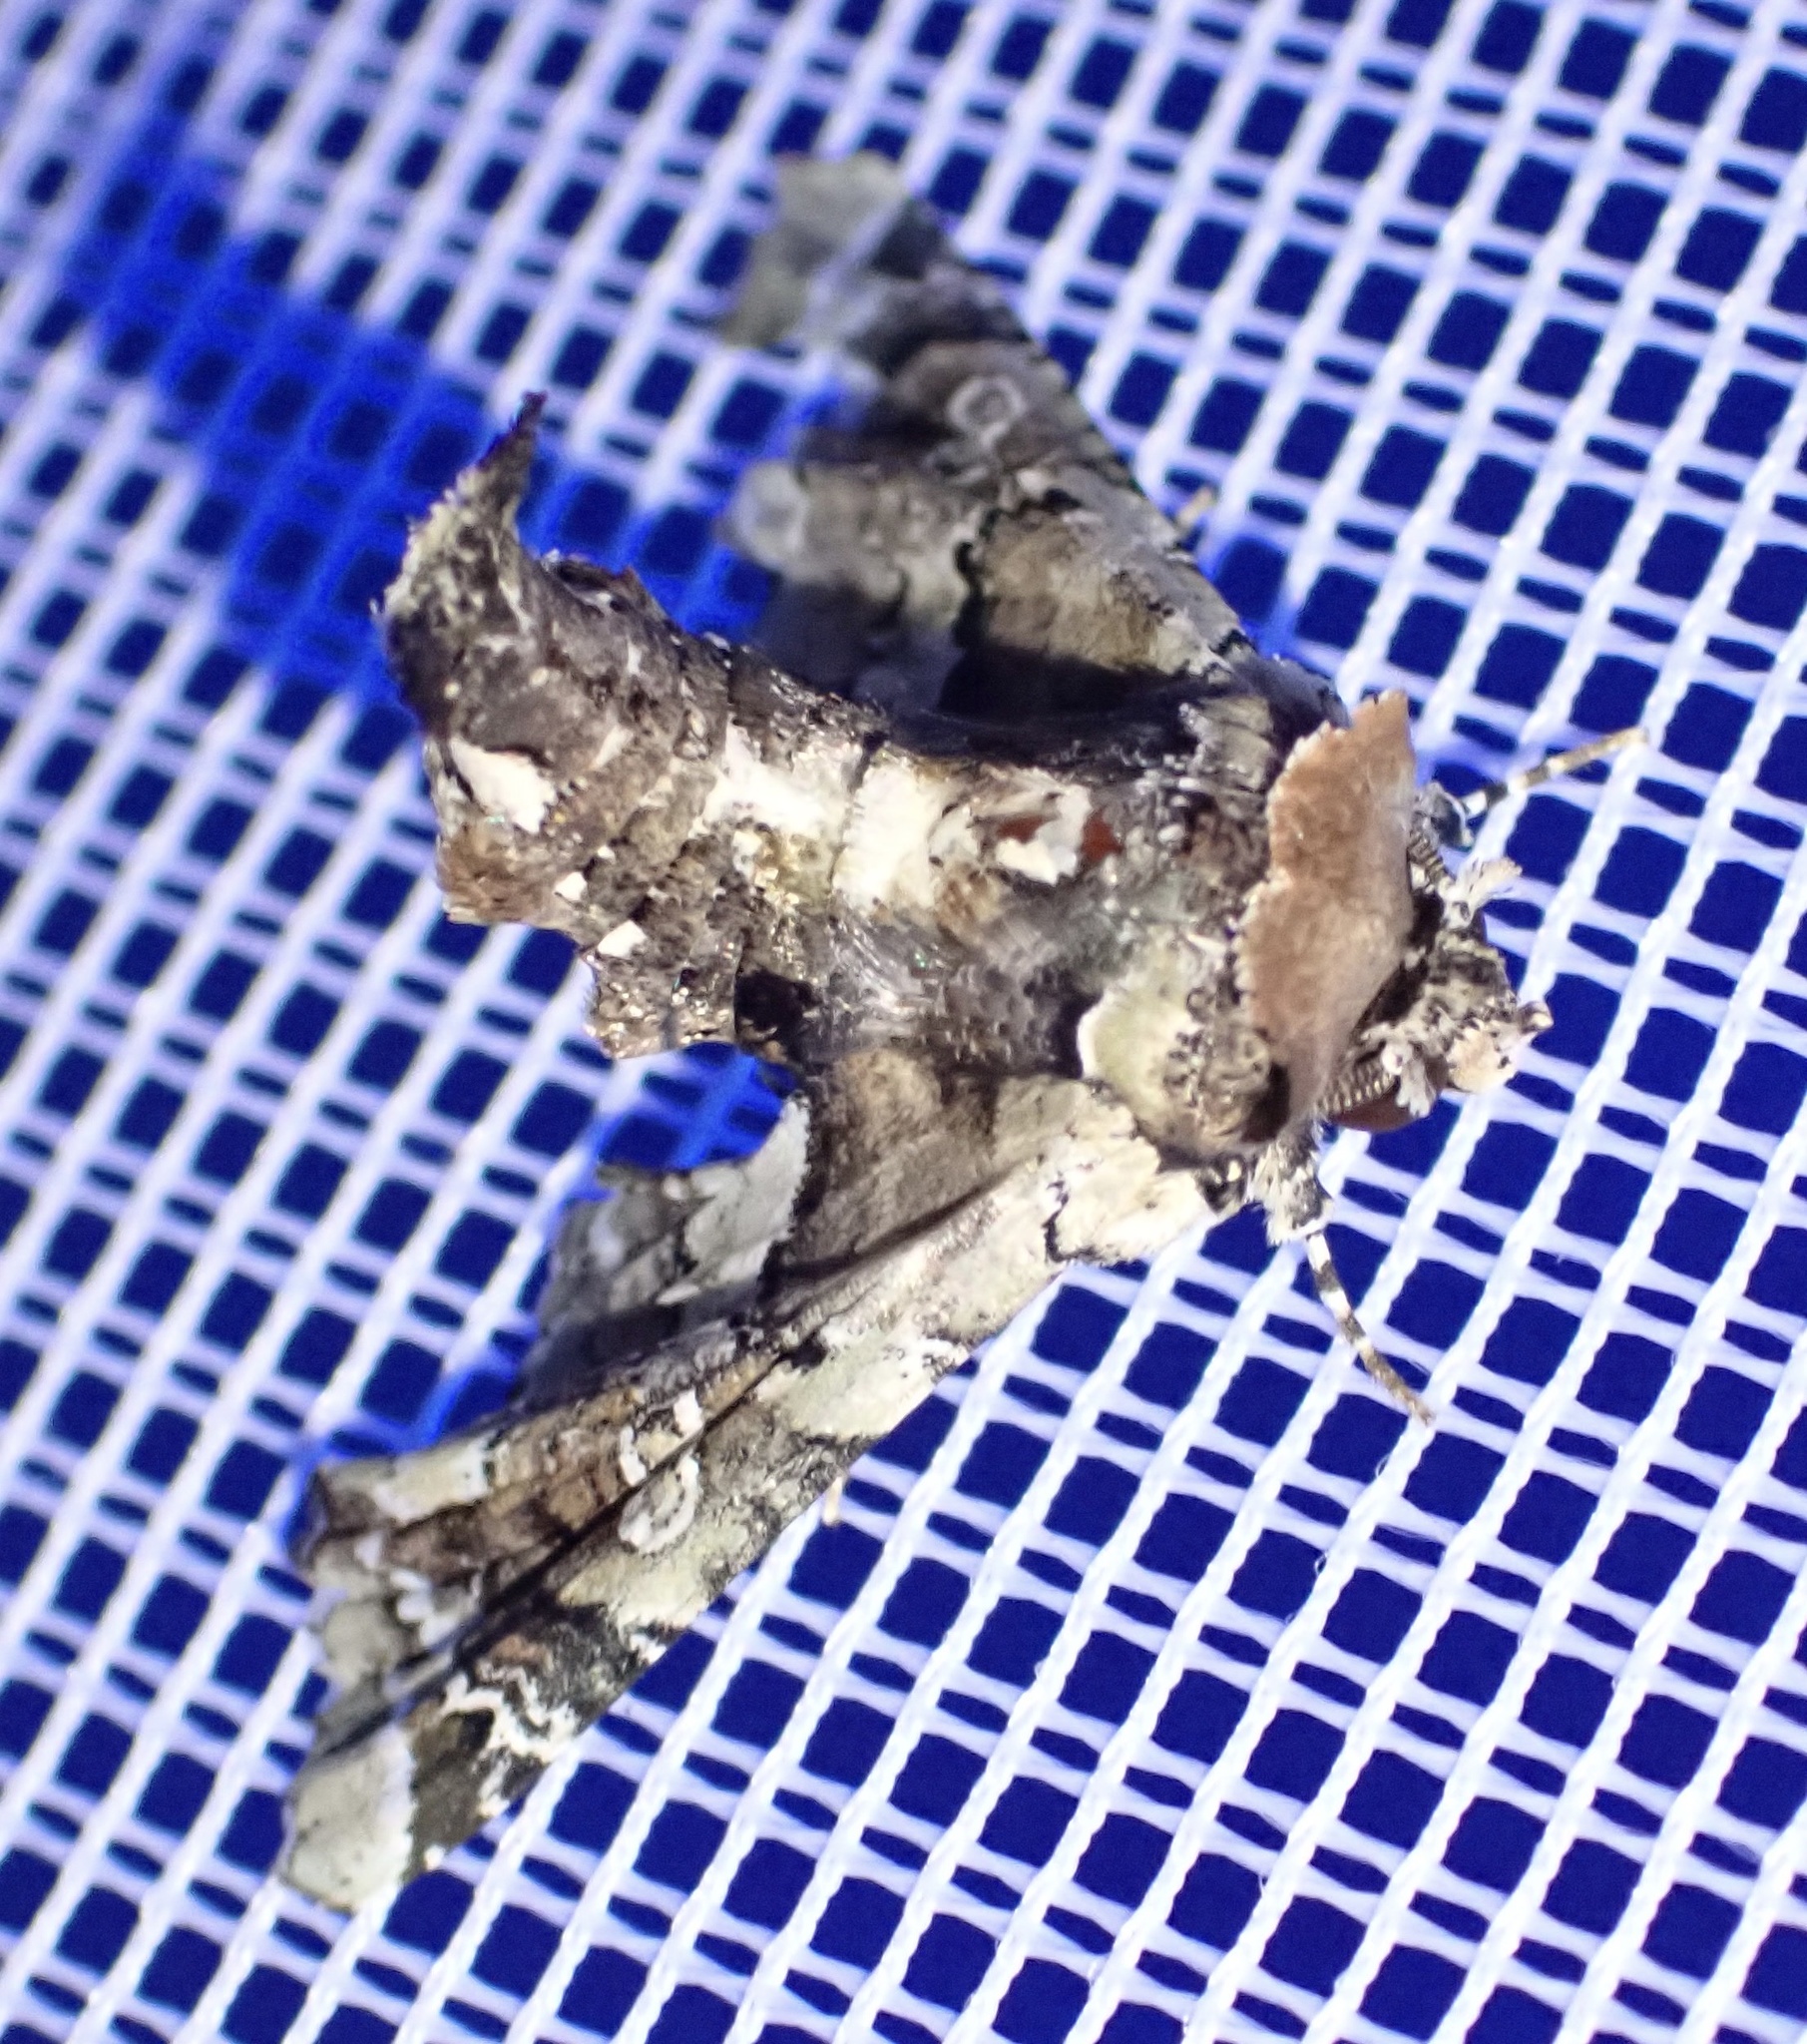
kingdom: Animalia
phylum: Arthropoda
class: Insecta
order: Lepidoptera
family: Euteliidae
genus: Eutelia
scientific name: Eutelia bowkeri
